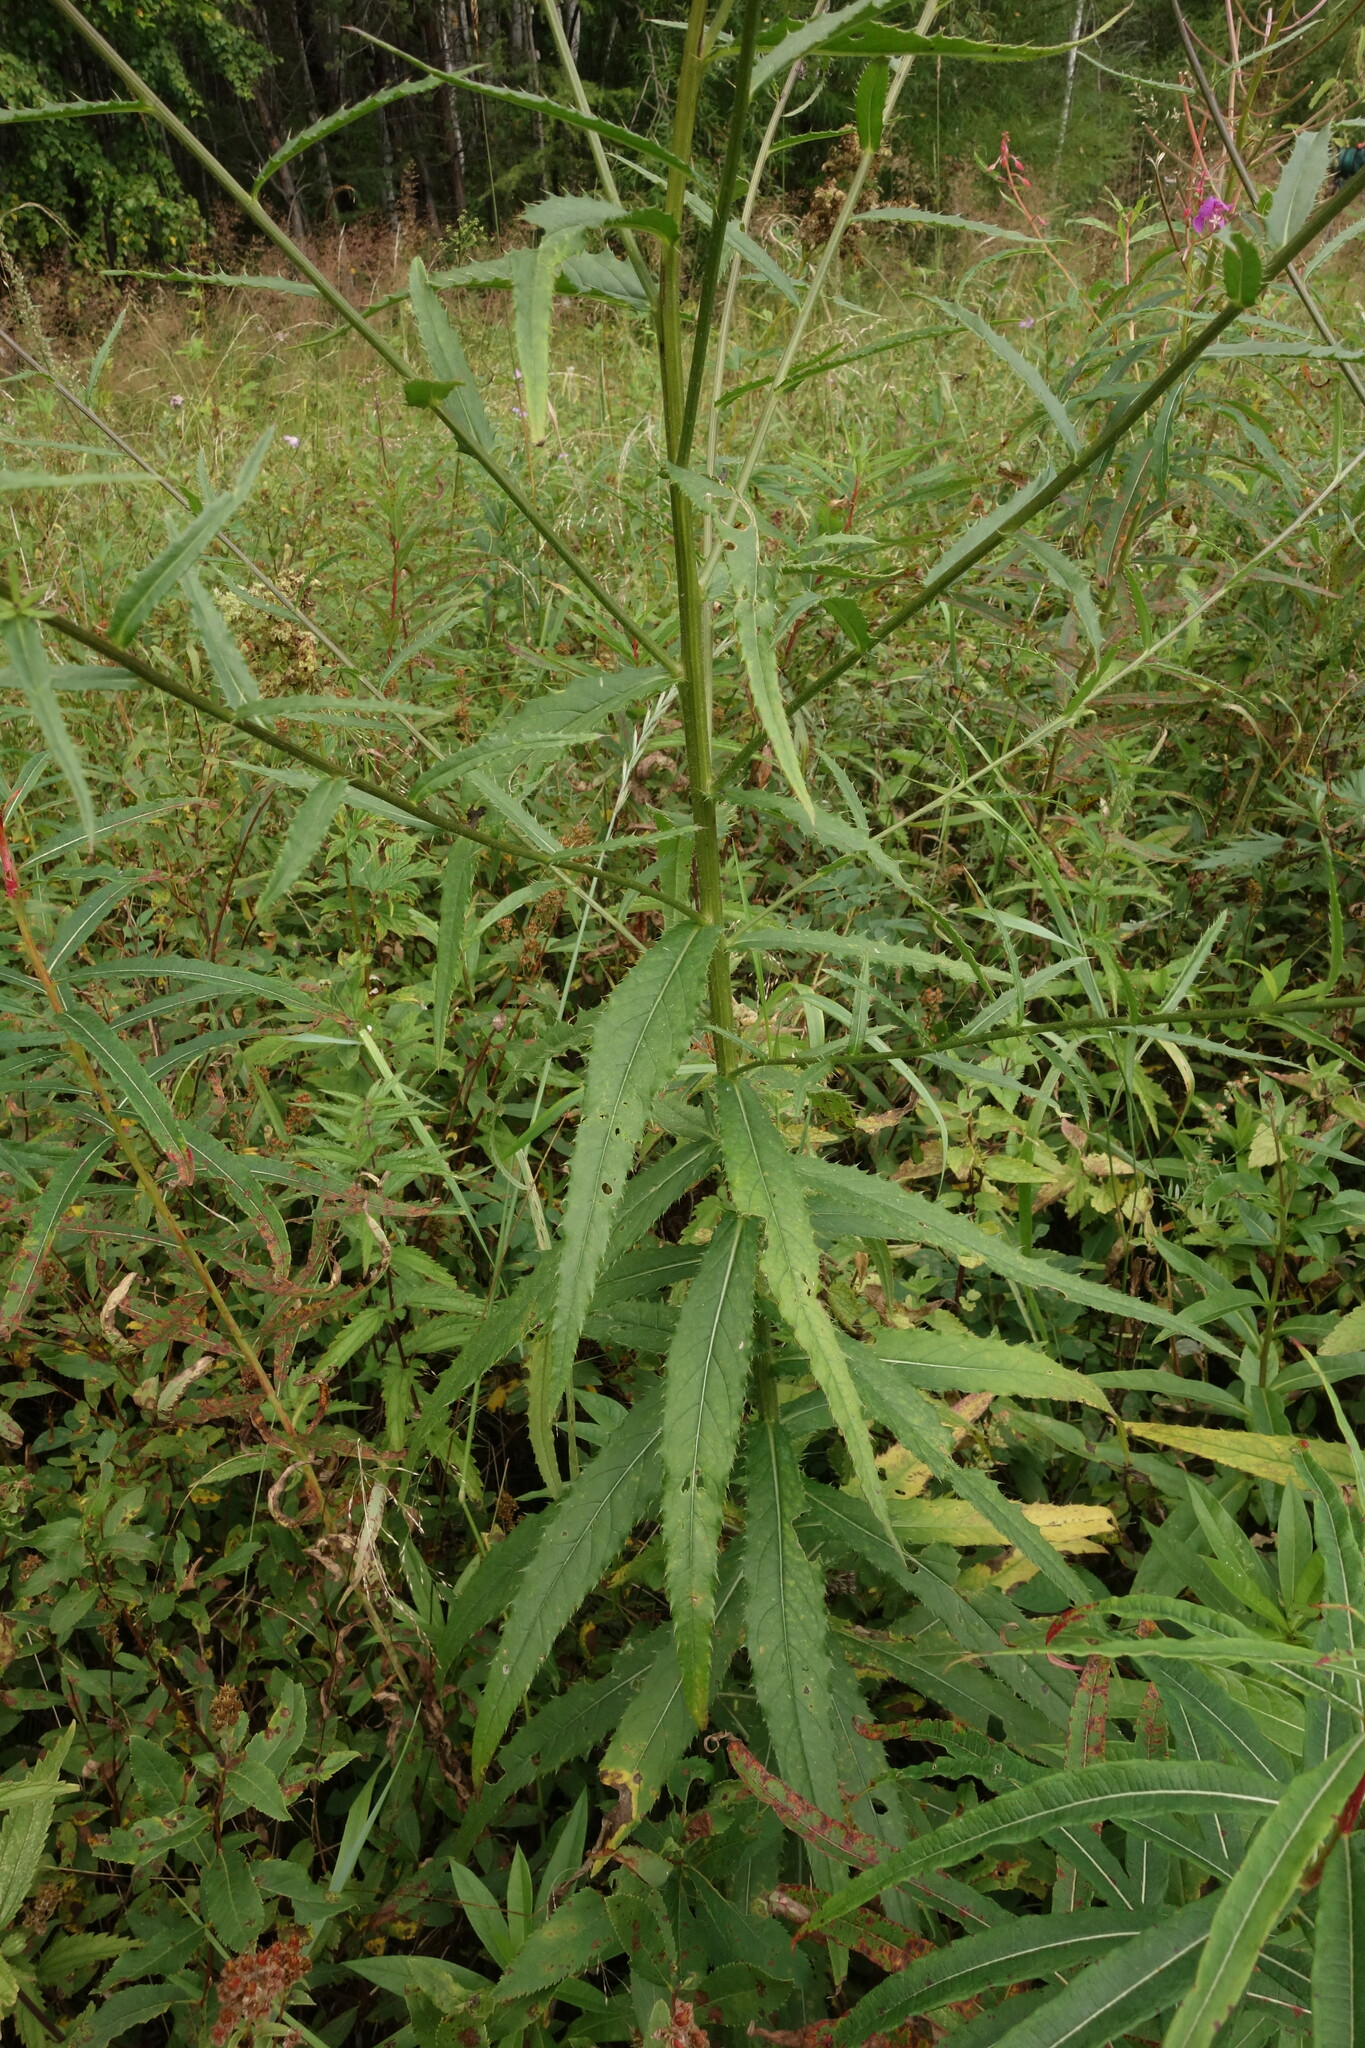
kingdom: Plantae
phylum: Tracheophyta
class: Magnoliopsida
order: Asterales
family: Asteraceae
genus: Cirsium
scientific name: Cirsium serratuloides
